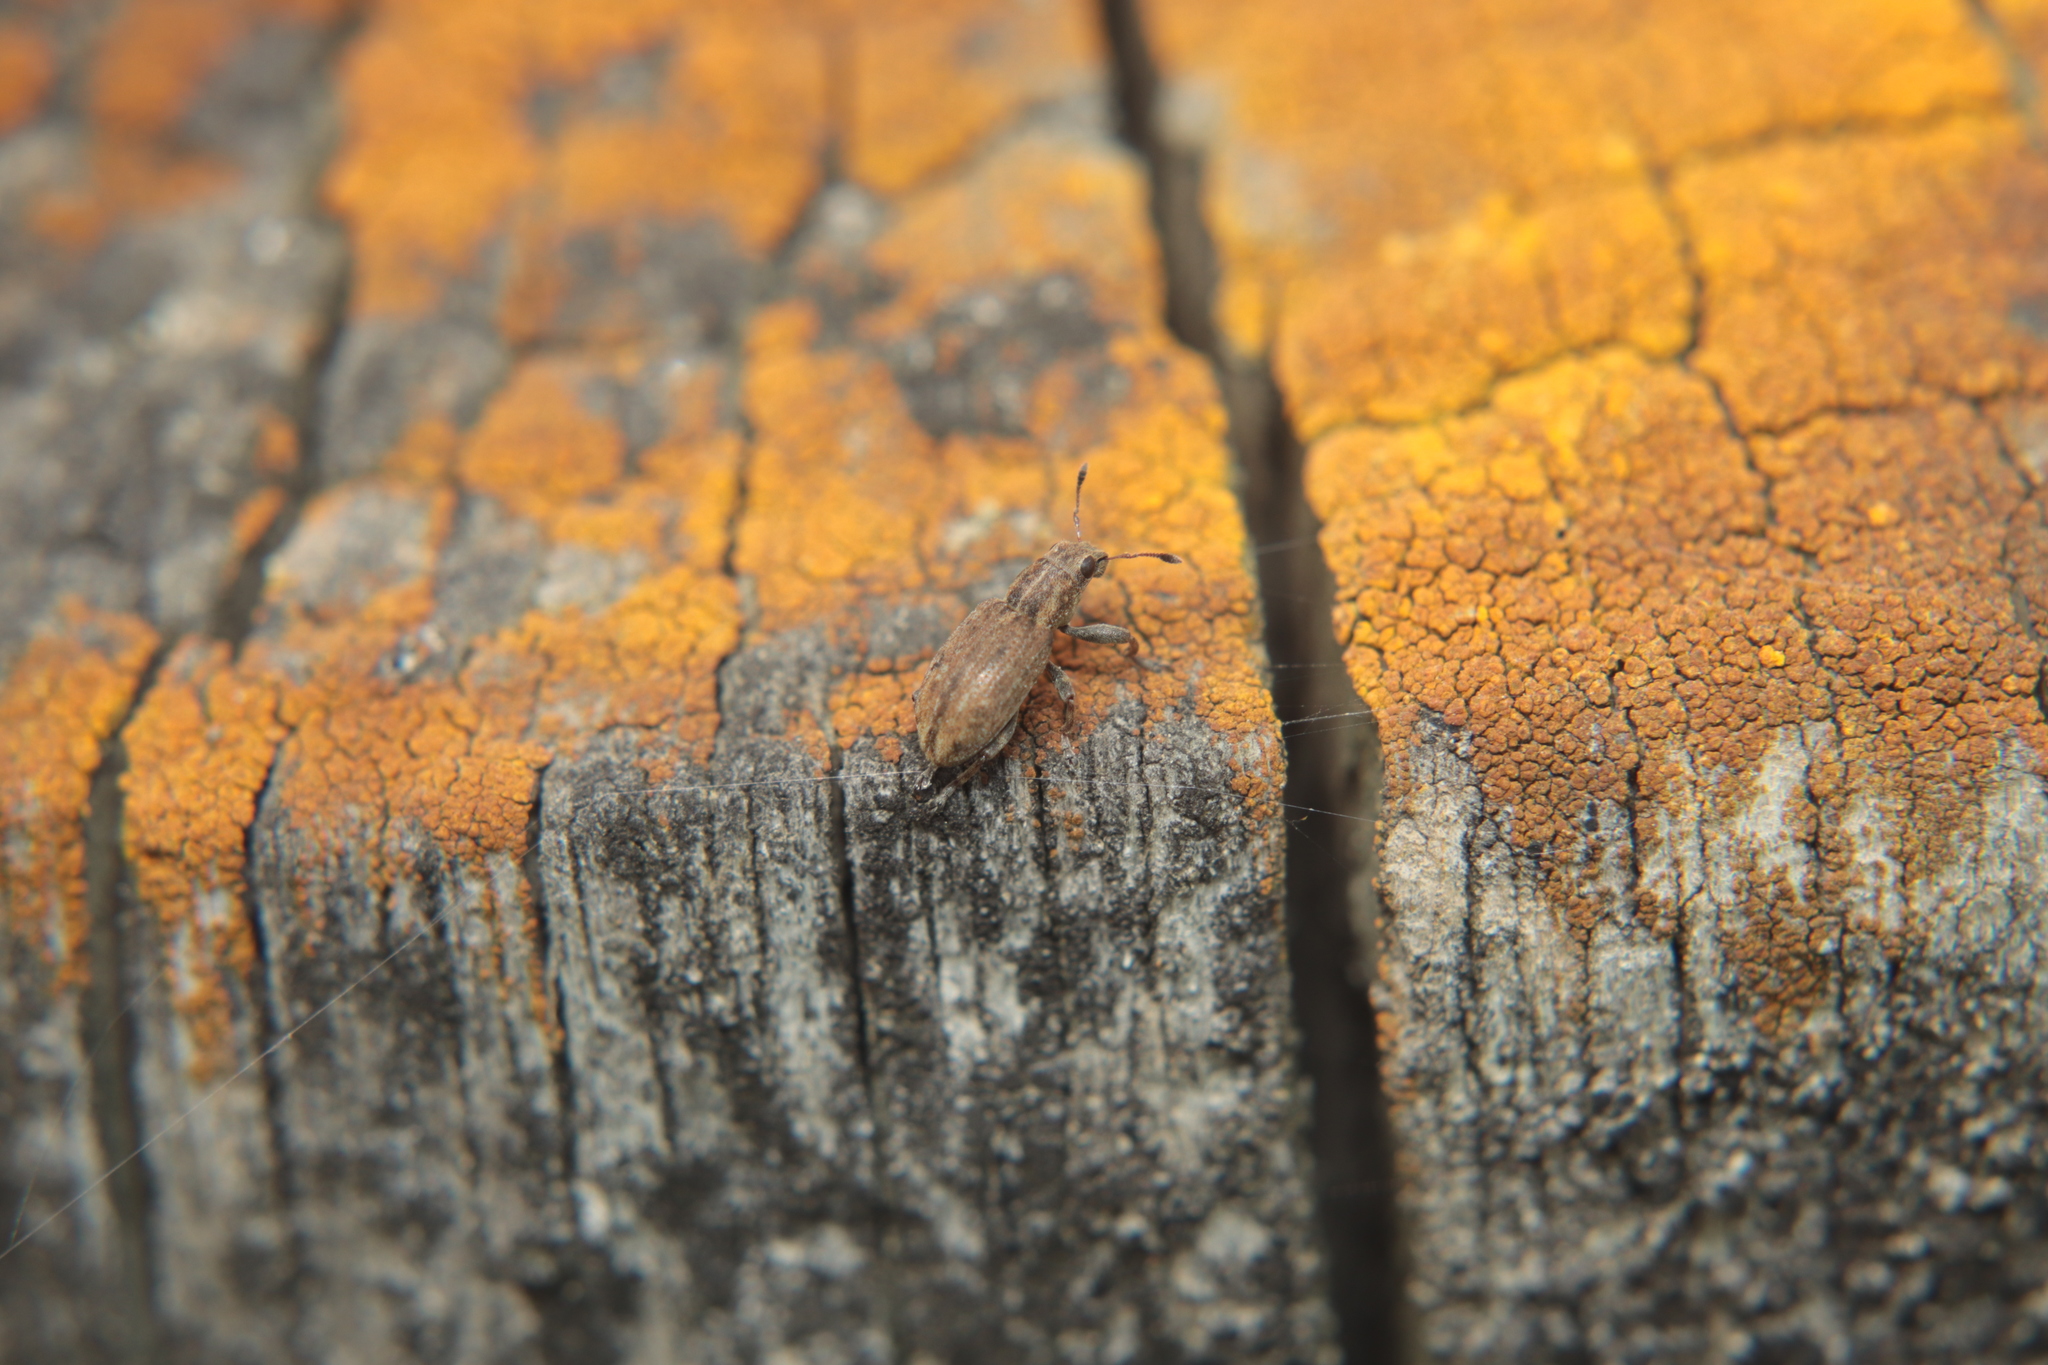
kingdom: Animalia
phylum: Arthropoda
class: Insecta
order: Coleoptera
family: Curculionidae
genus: Sitona
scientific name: Sitona obsoletus
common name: Weevil
